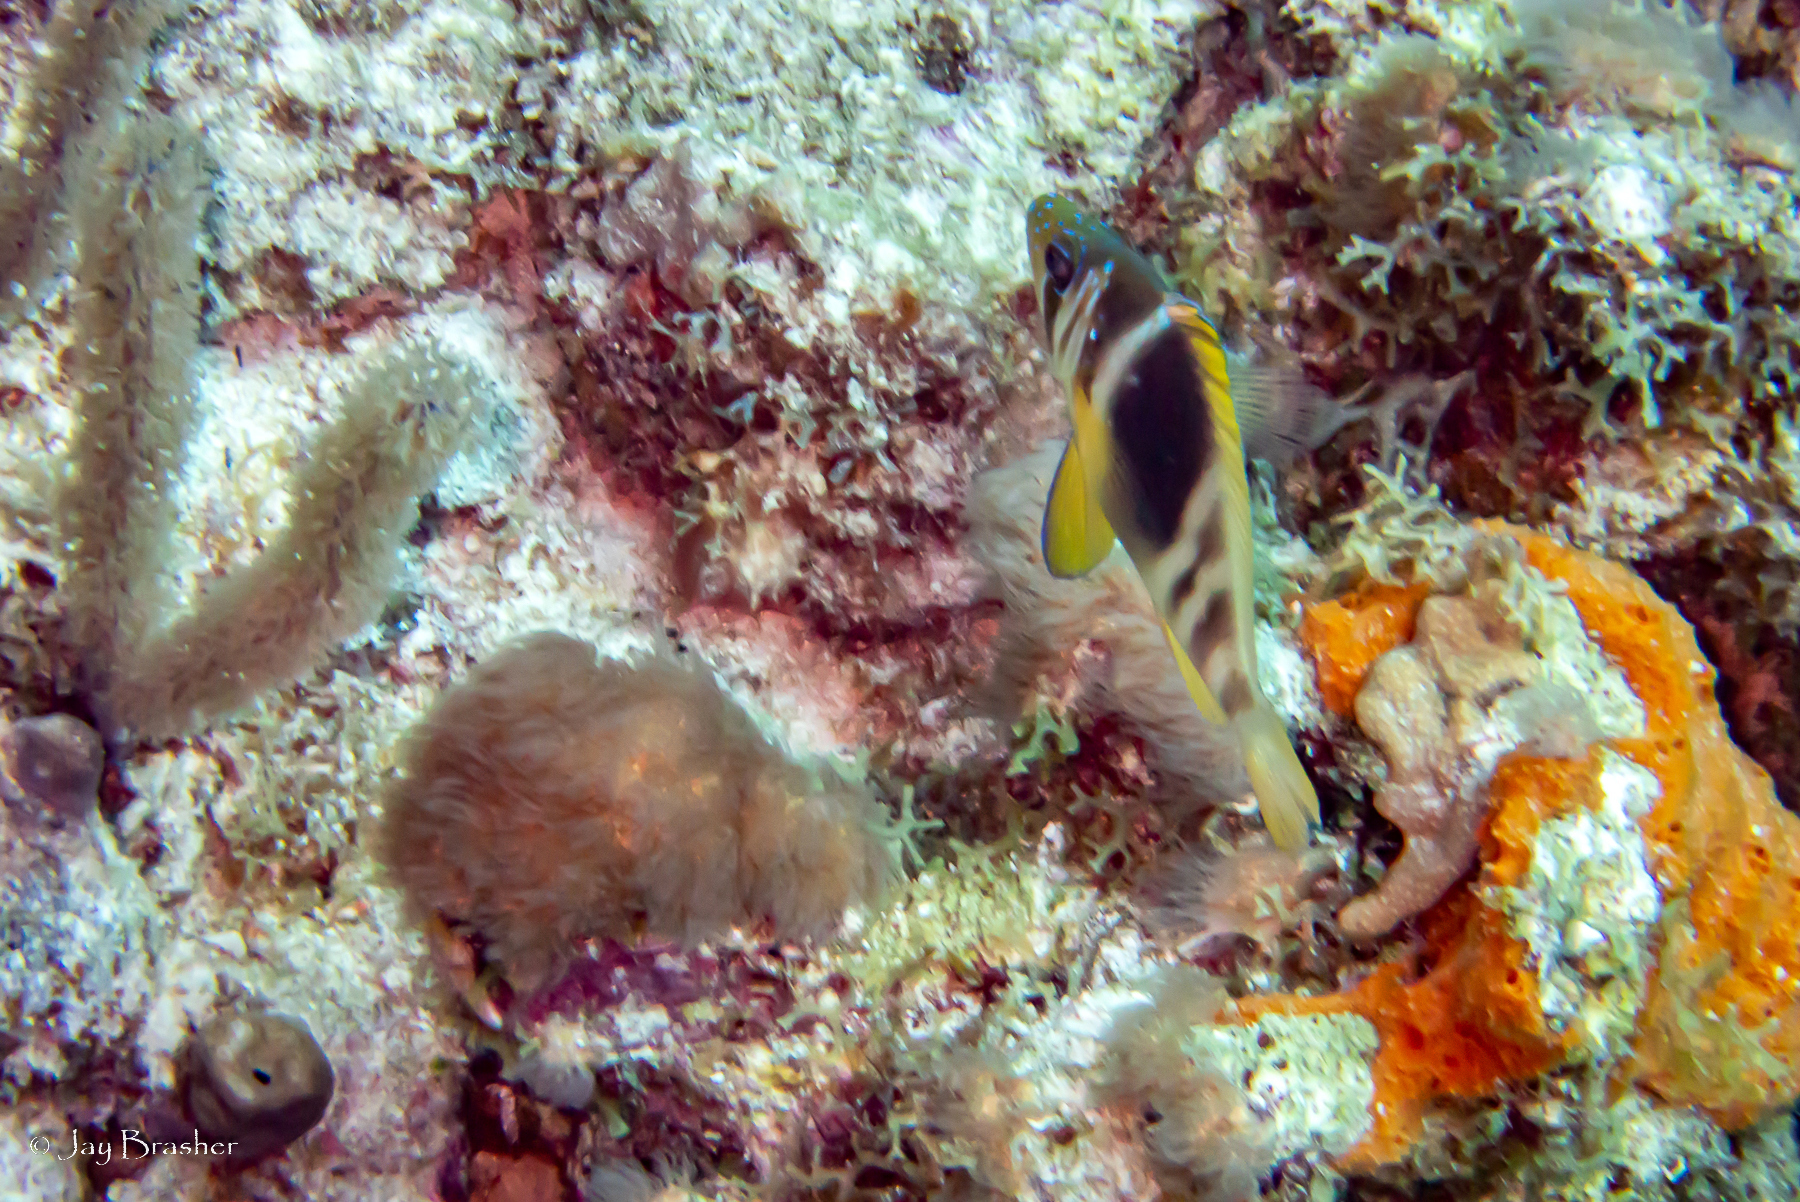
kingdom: Animalia
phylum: Porifera
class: Demospongiae
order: Scopalinida
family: Scopalinidae
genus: Scopalina
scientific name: Scopalina ruetzleri
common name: Orange lumpy encrusting sponge
